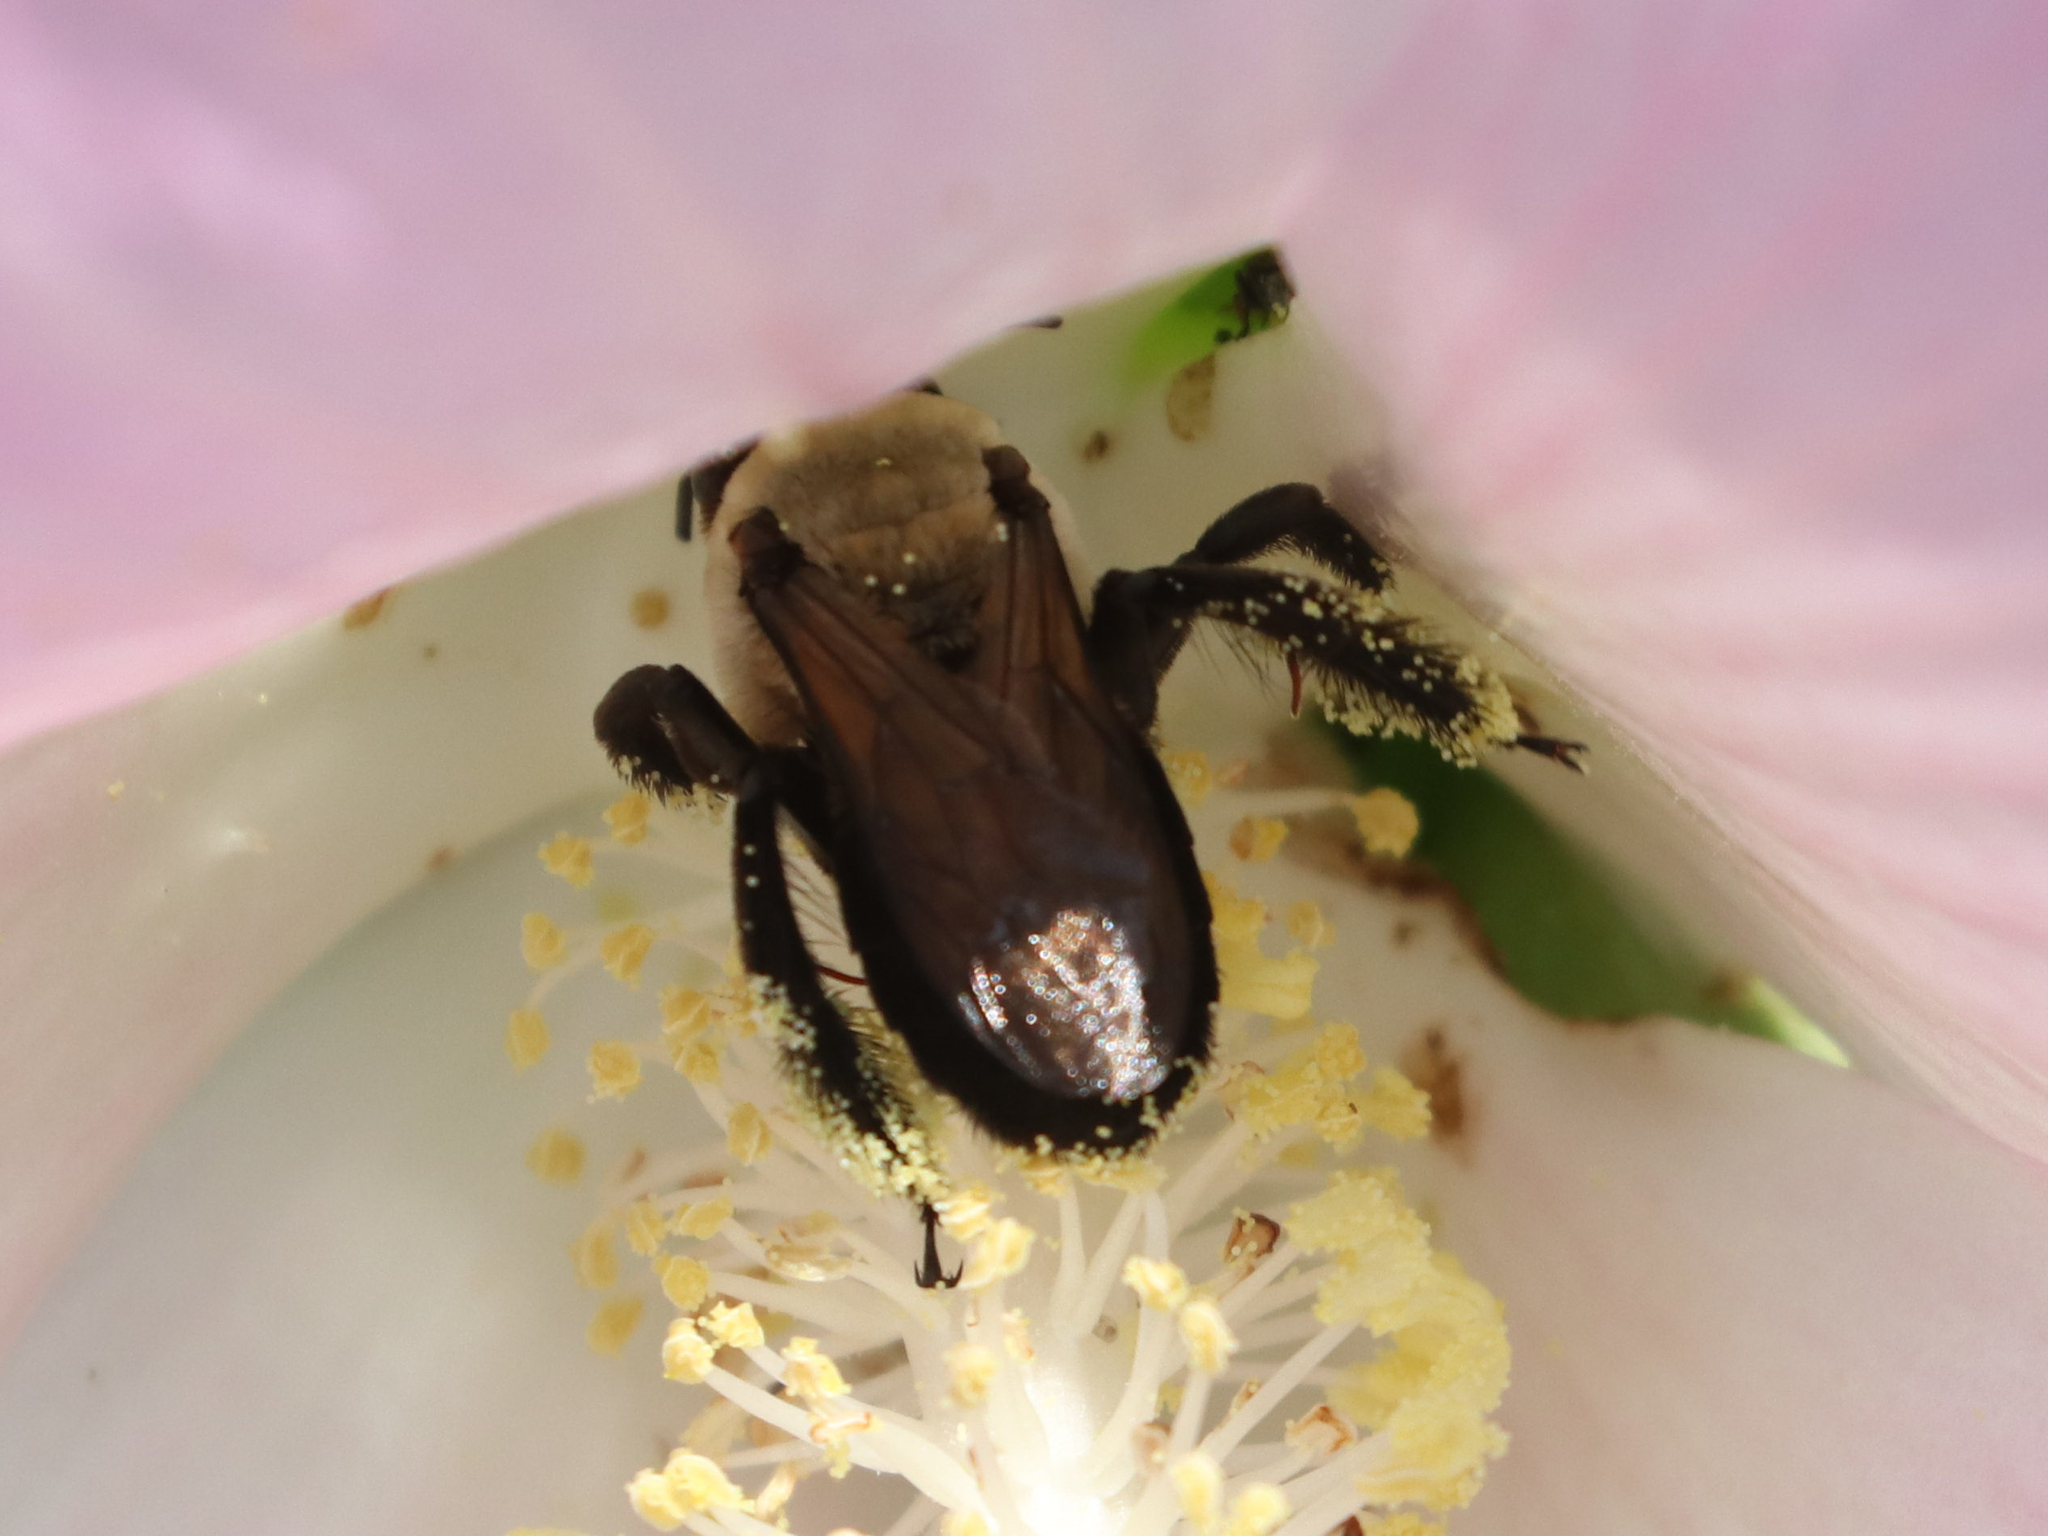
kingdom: Animalia
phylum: Arthropoda
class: Insecta
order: Hymenoptera
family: Apidae
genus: Ptilothrix
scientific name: Ptilothrix bombiformis
